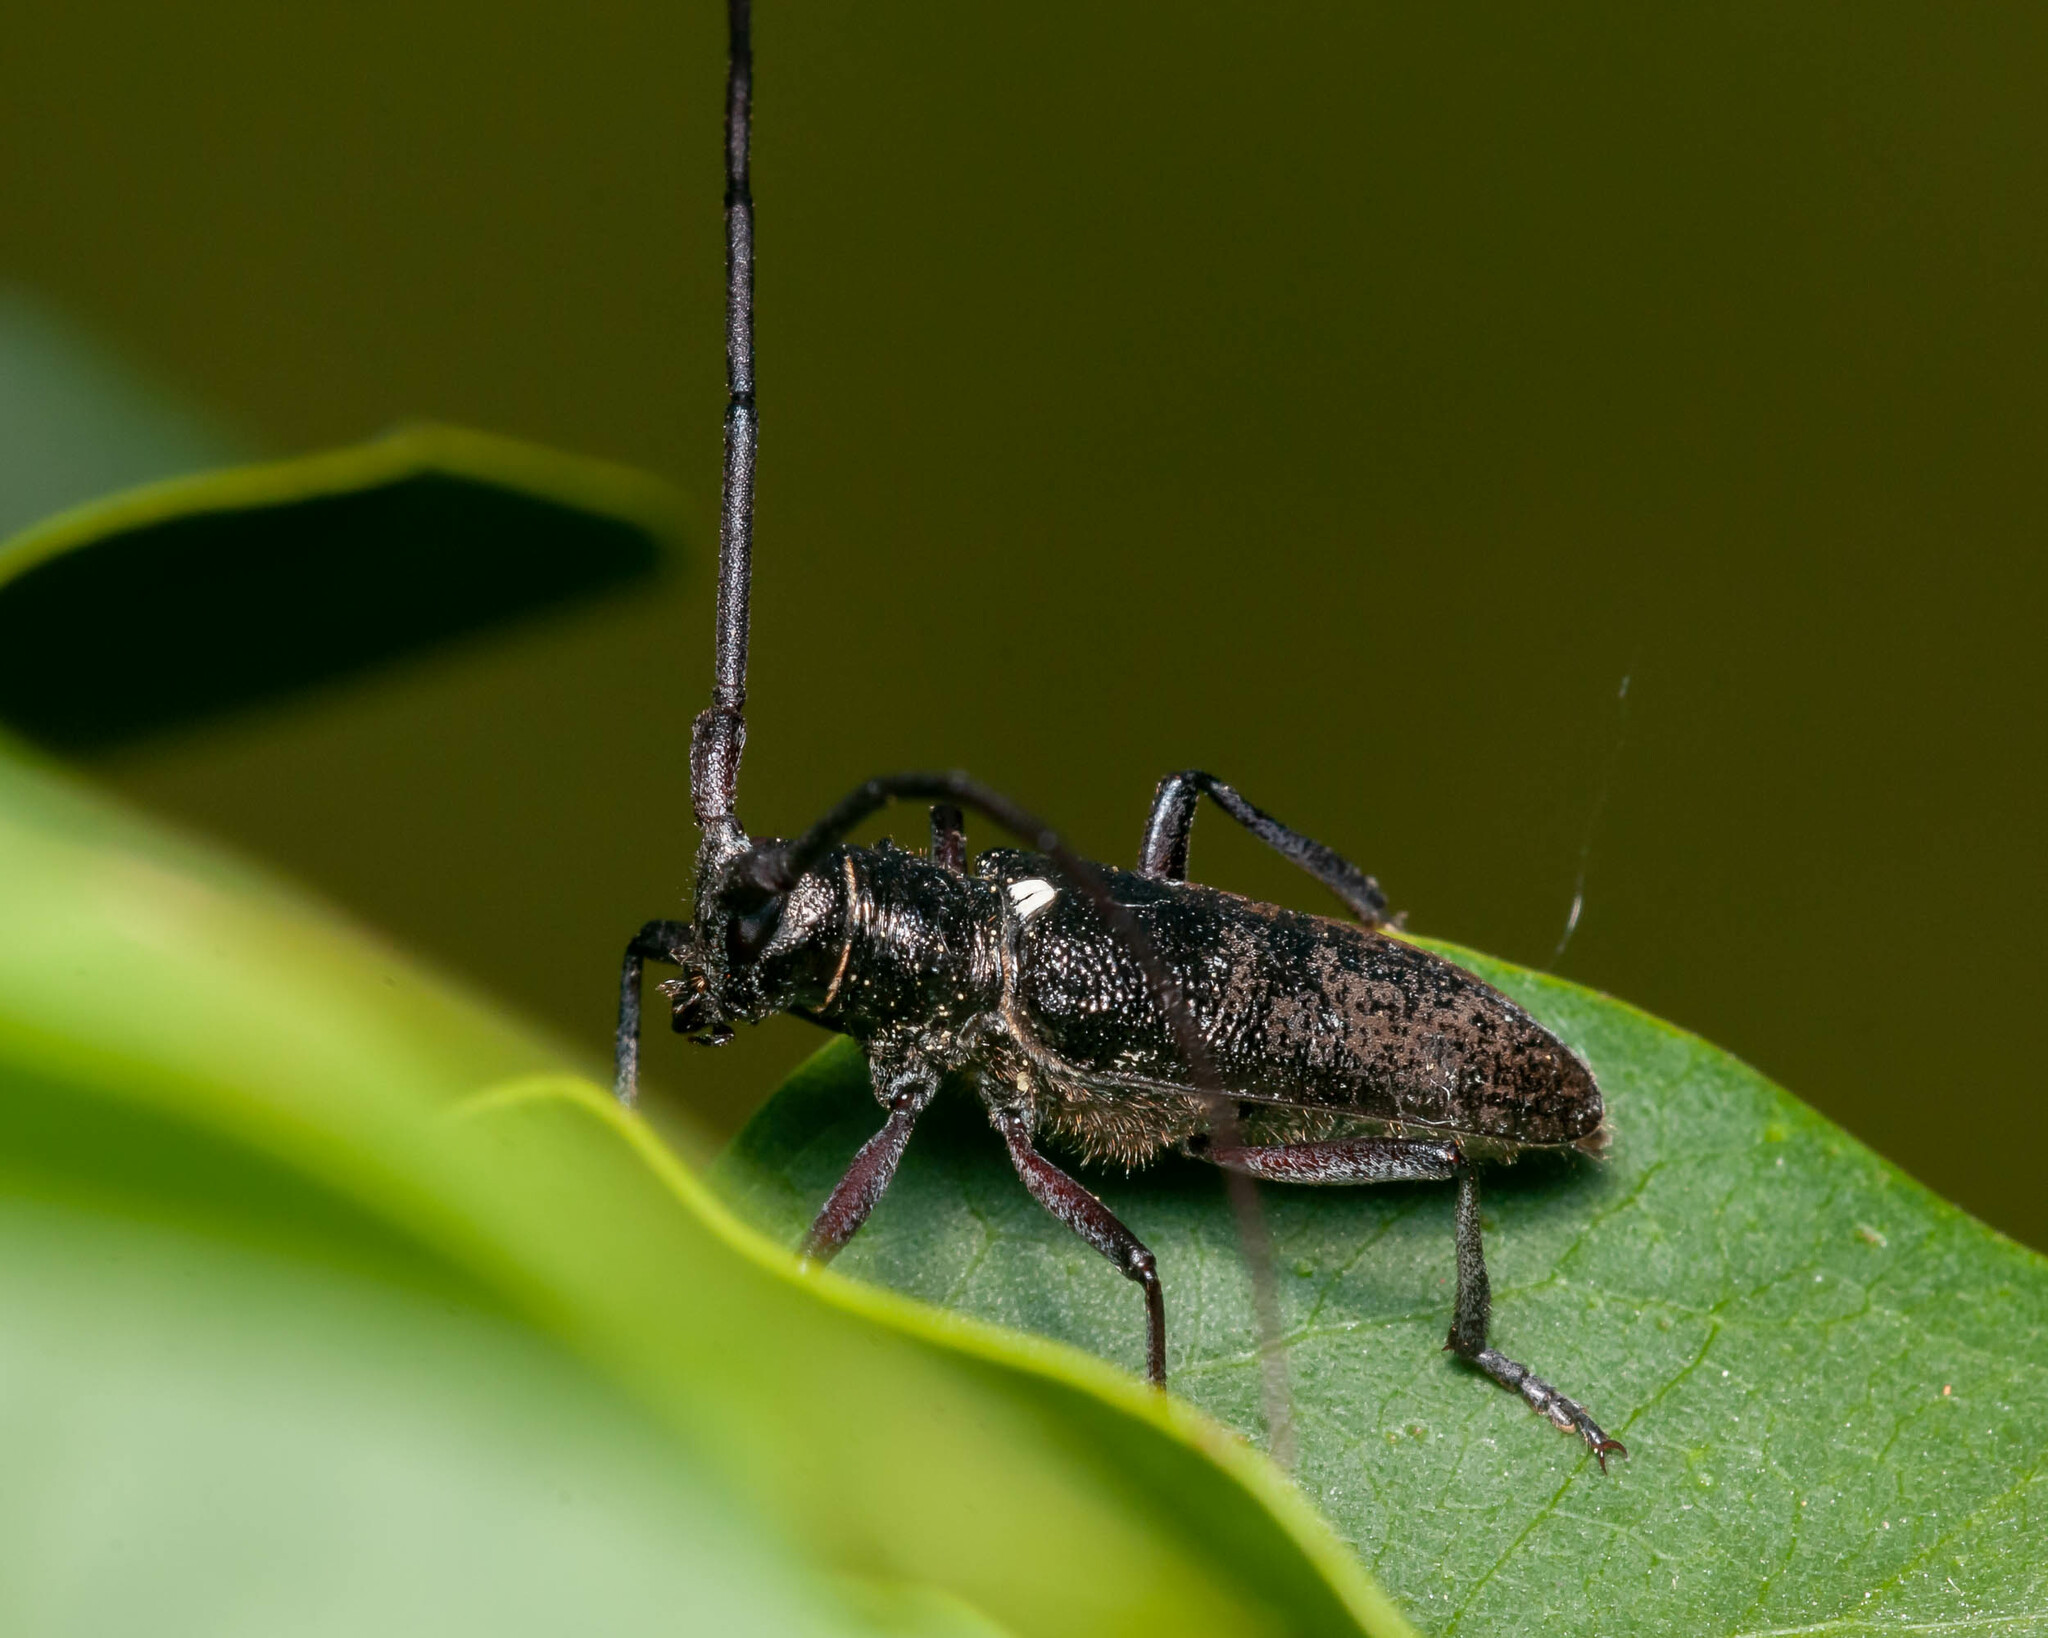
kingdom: Animalia
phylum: Arthropoda
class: Insecta
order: Coleoptera
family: Cerambycidae
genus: Monochamus
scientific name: Monochamus scutellatus
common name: White-spotted sawyer beetle
